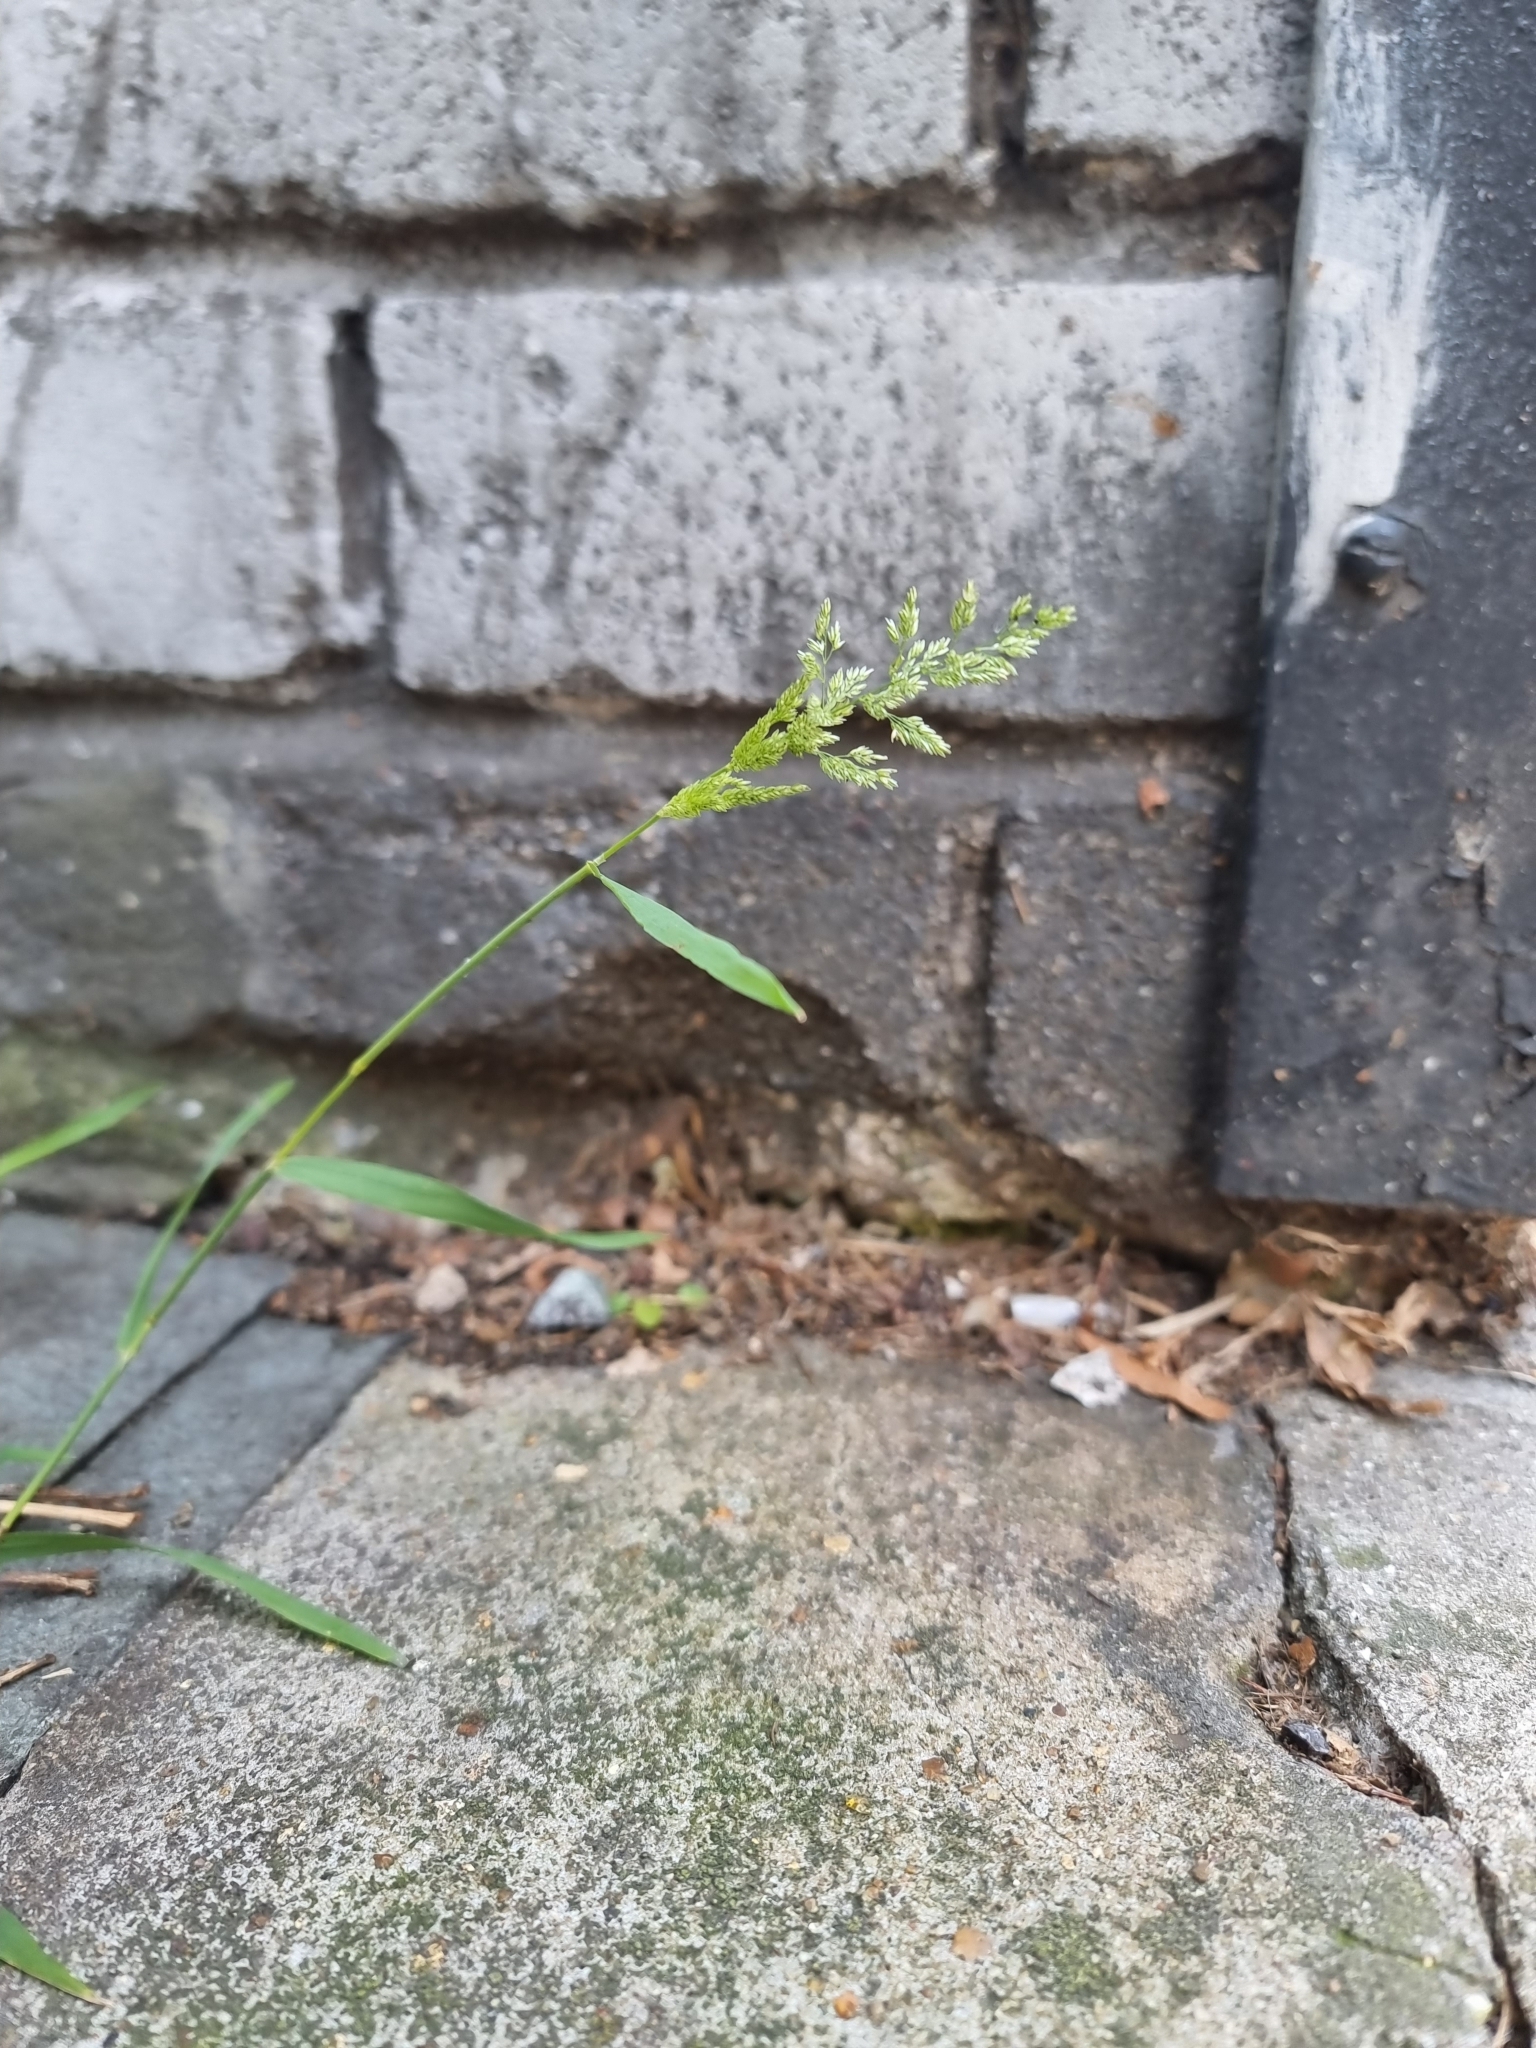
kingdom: Plantae
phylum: Tracheophyta
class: Liliopsida
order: Poales
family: Poaceae
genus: Polypogon
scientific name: Polypogon viridis
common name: Water bent
